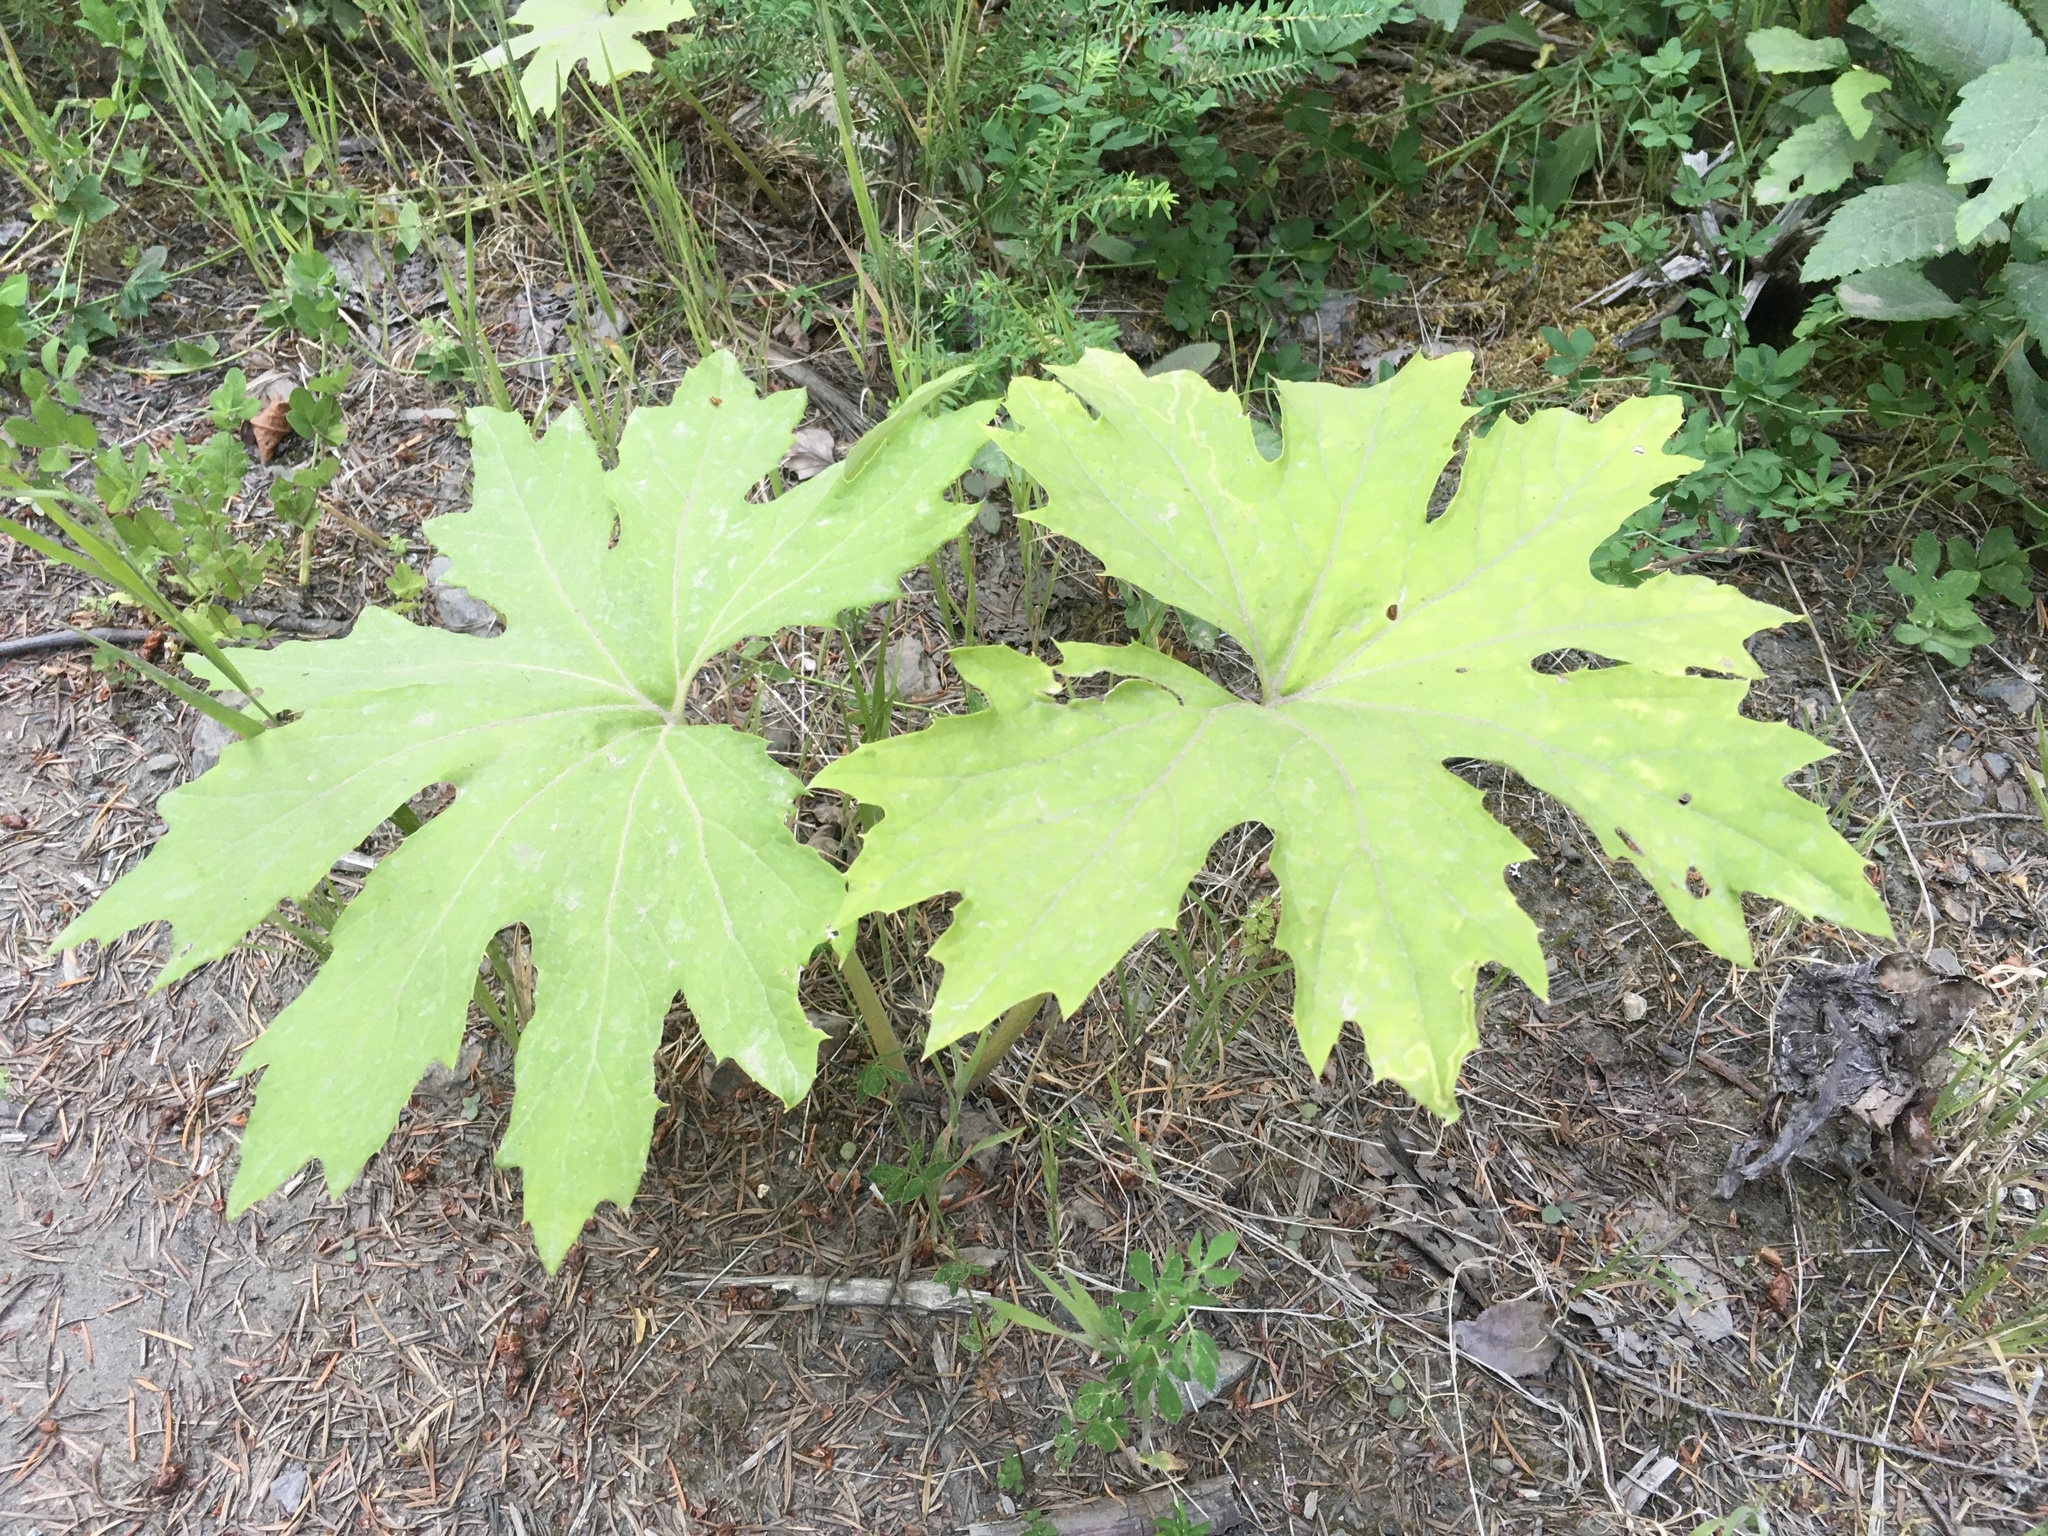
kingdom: Plantae
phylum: Tracheophyta
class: Magnoliopsida
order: Asterales
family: Asteraceae
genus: Petasites
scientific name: Petasites frigidus
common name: Arctic butterbur
